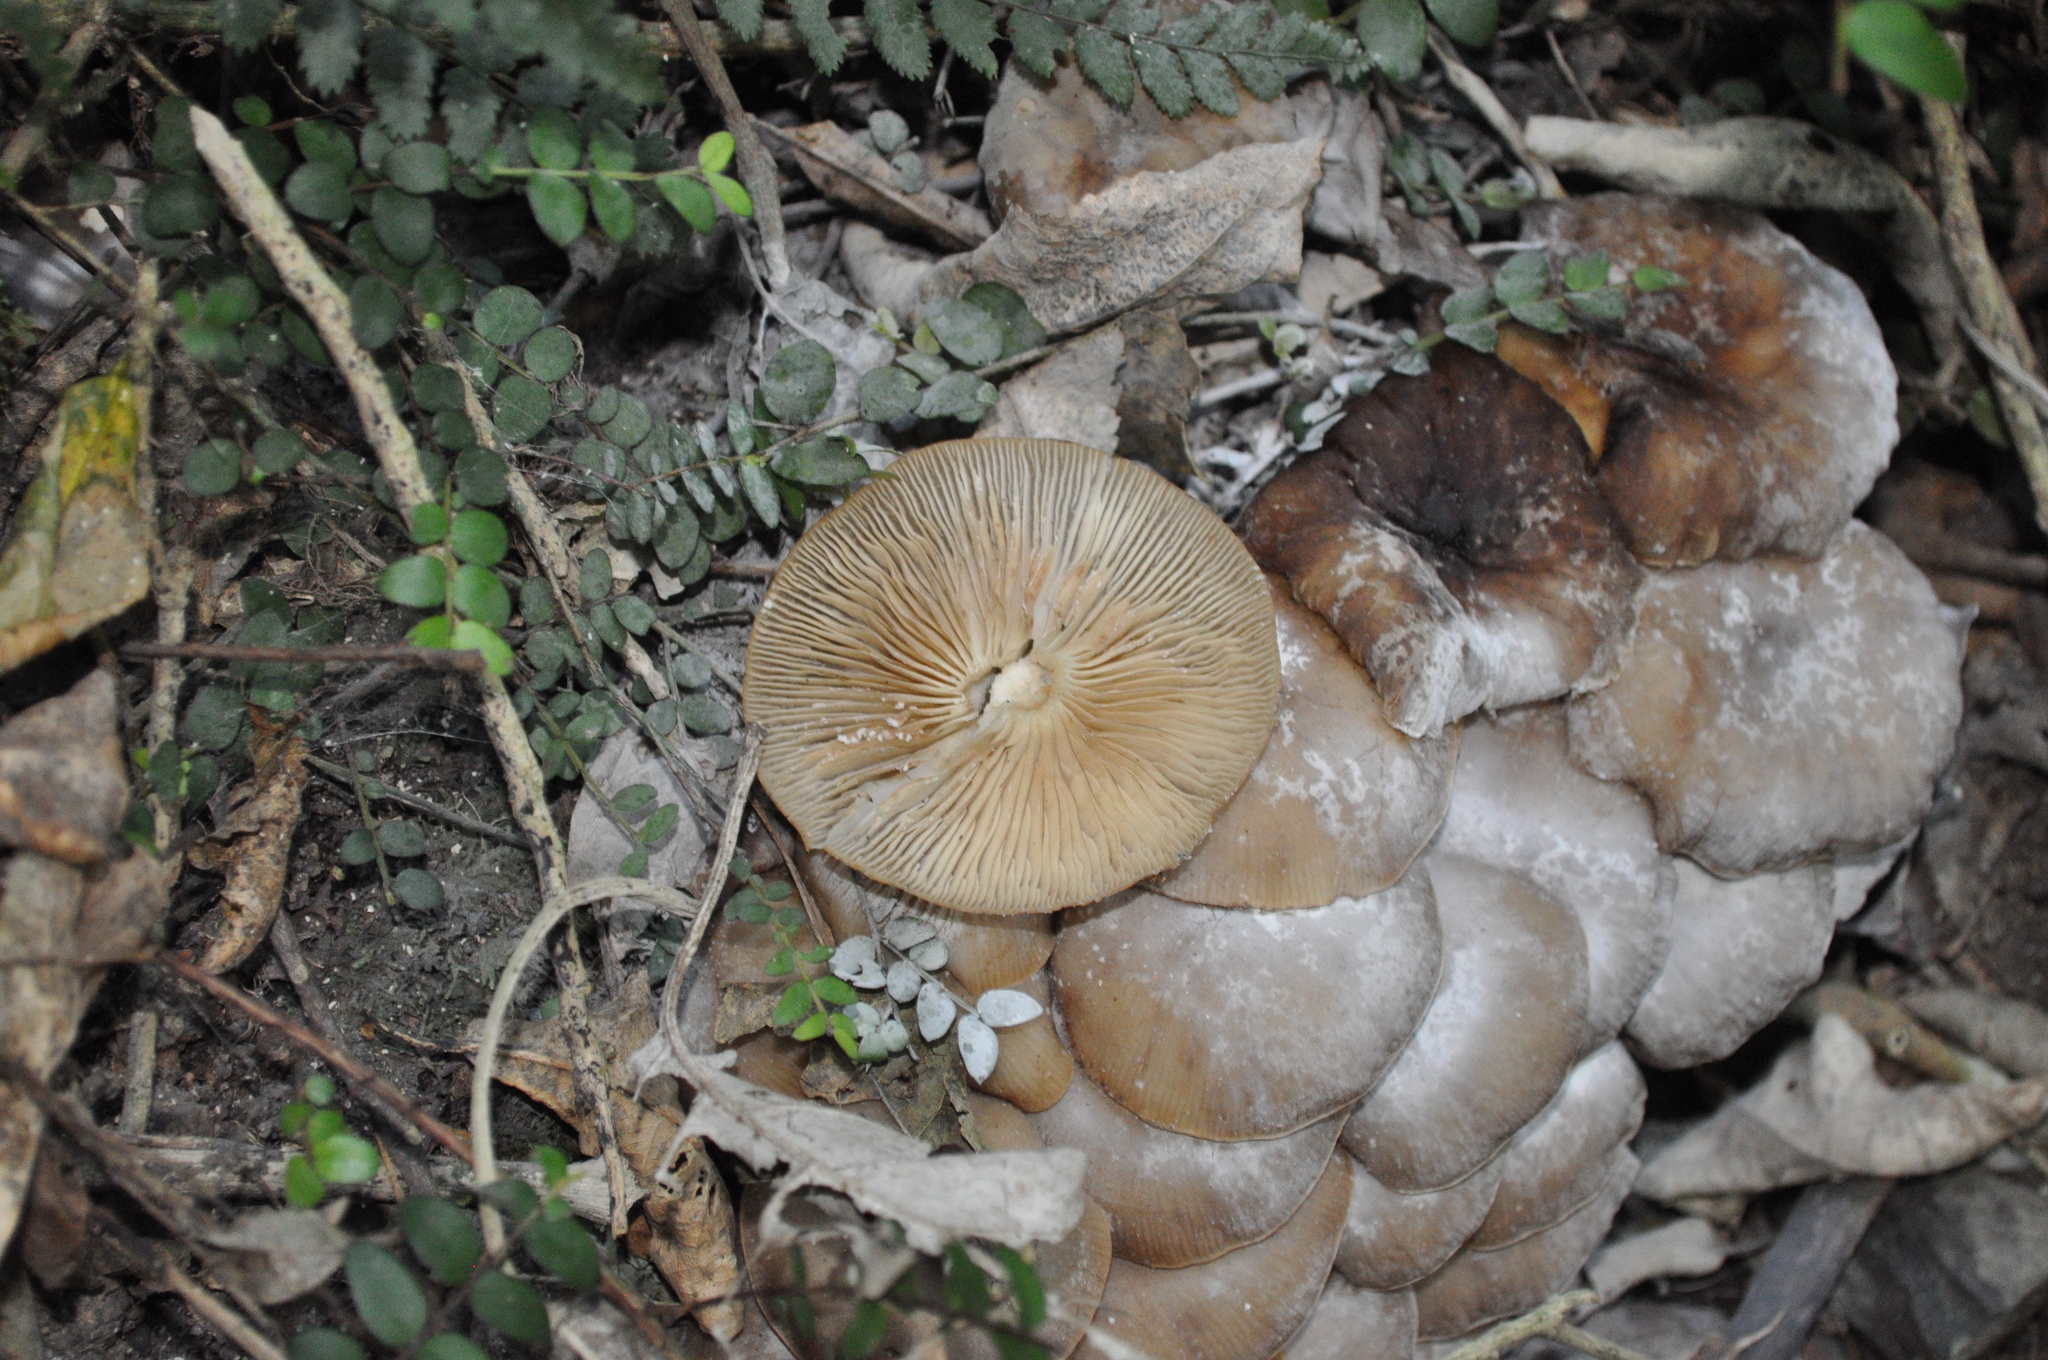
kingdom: Fungi
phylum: Basidiomycota
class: Agaricomycetes
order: Agaricales
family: Physalacriaceae
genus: Armillaria
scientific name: Armillaria novae-zelandiae
